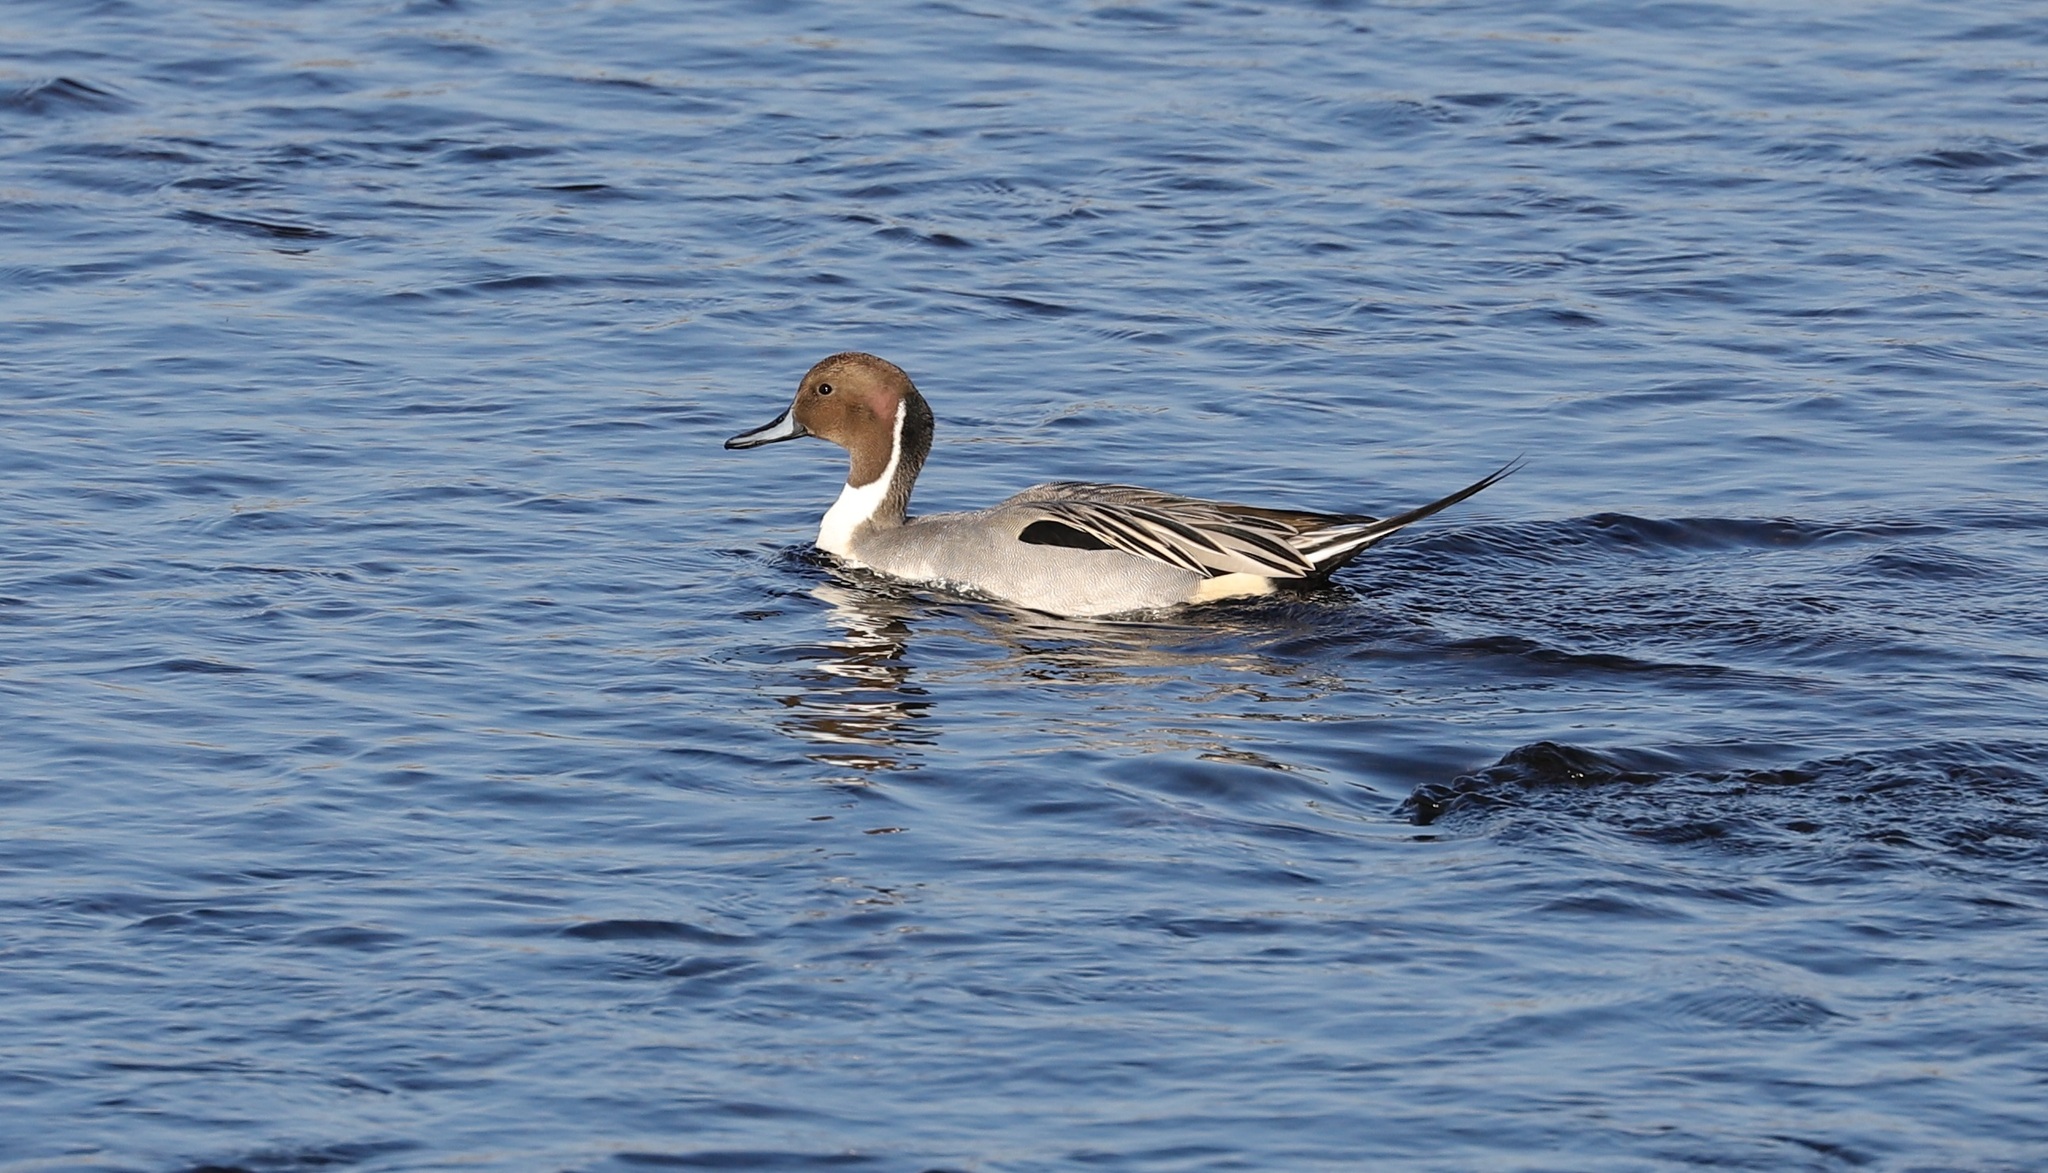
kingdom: Animalia
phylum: Chordata
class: Aves
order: Anseriformes
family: Anatidae
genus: Anas
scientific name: Anas acuta
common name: Northern pintail
